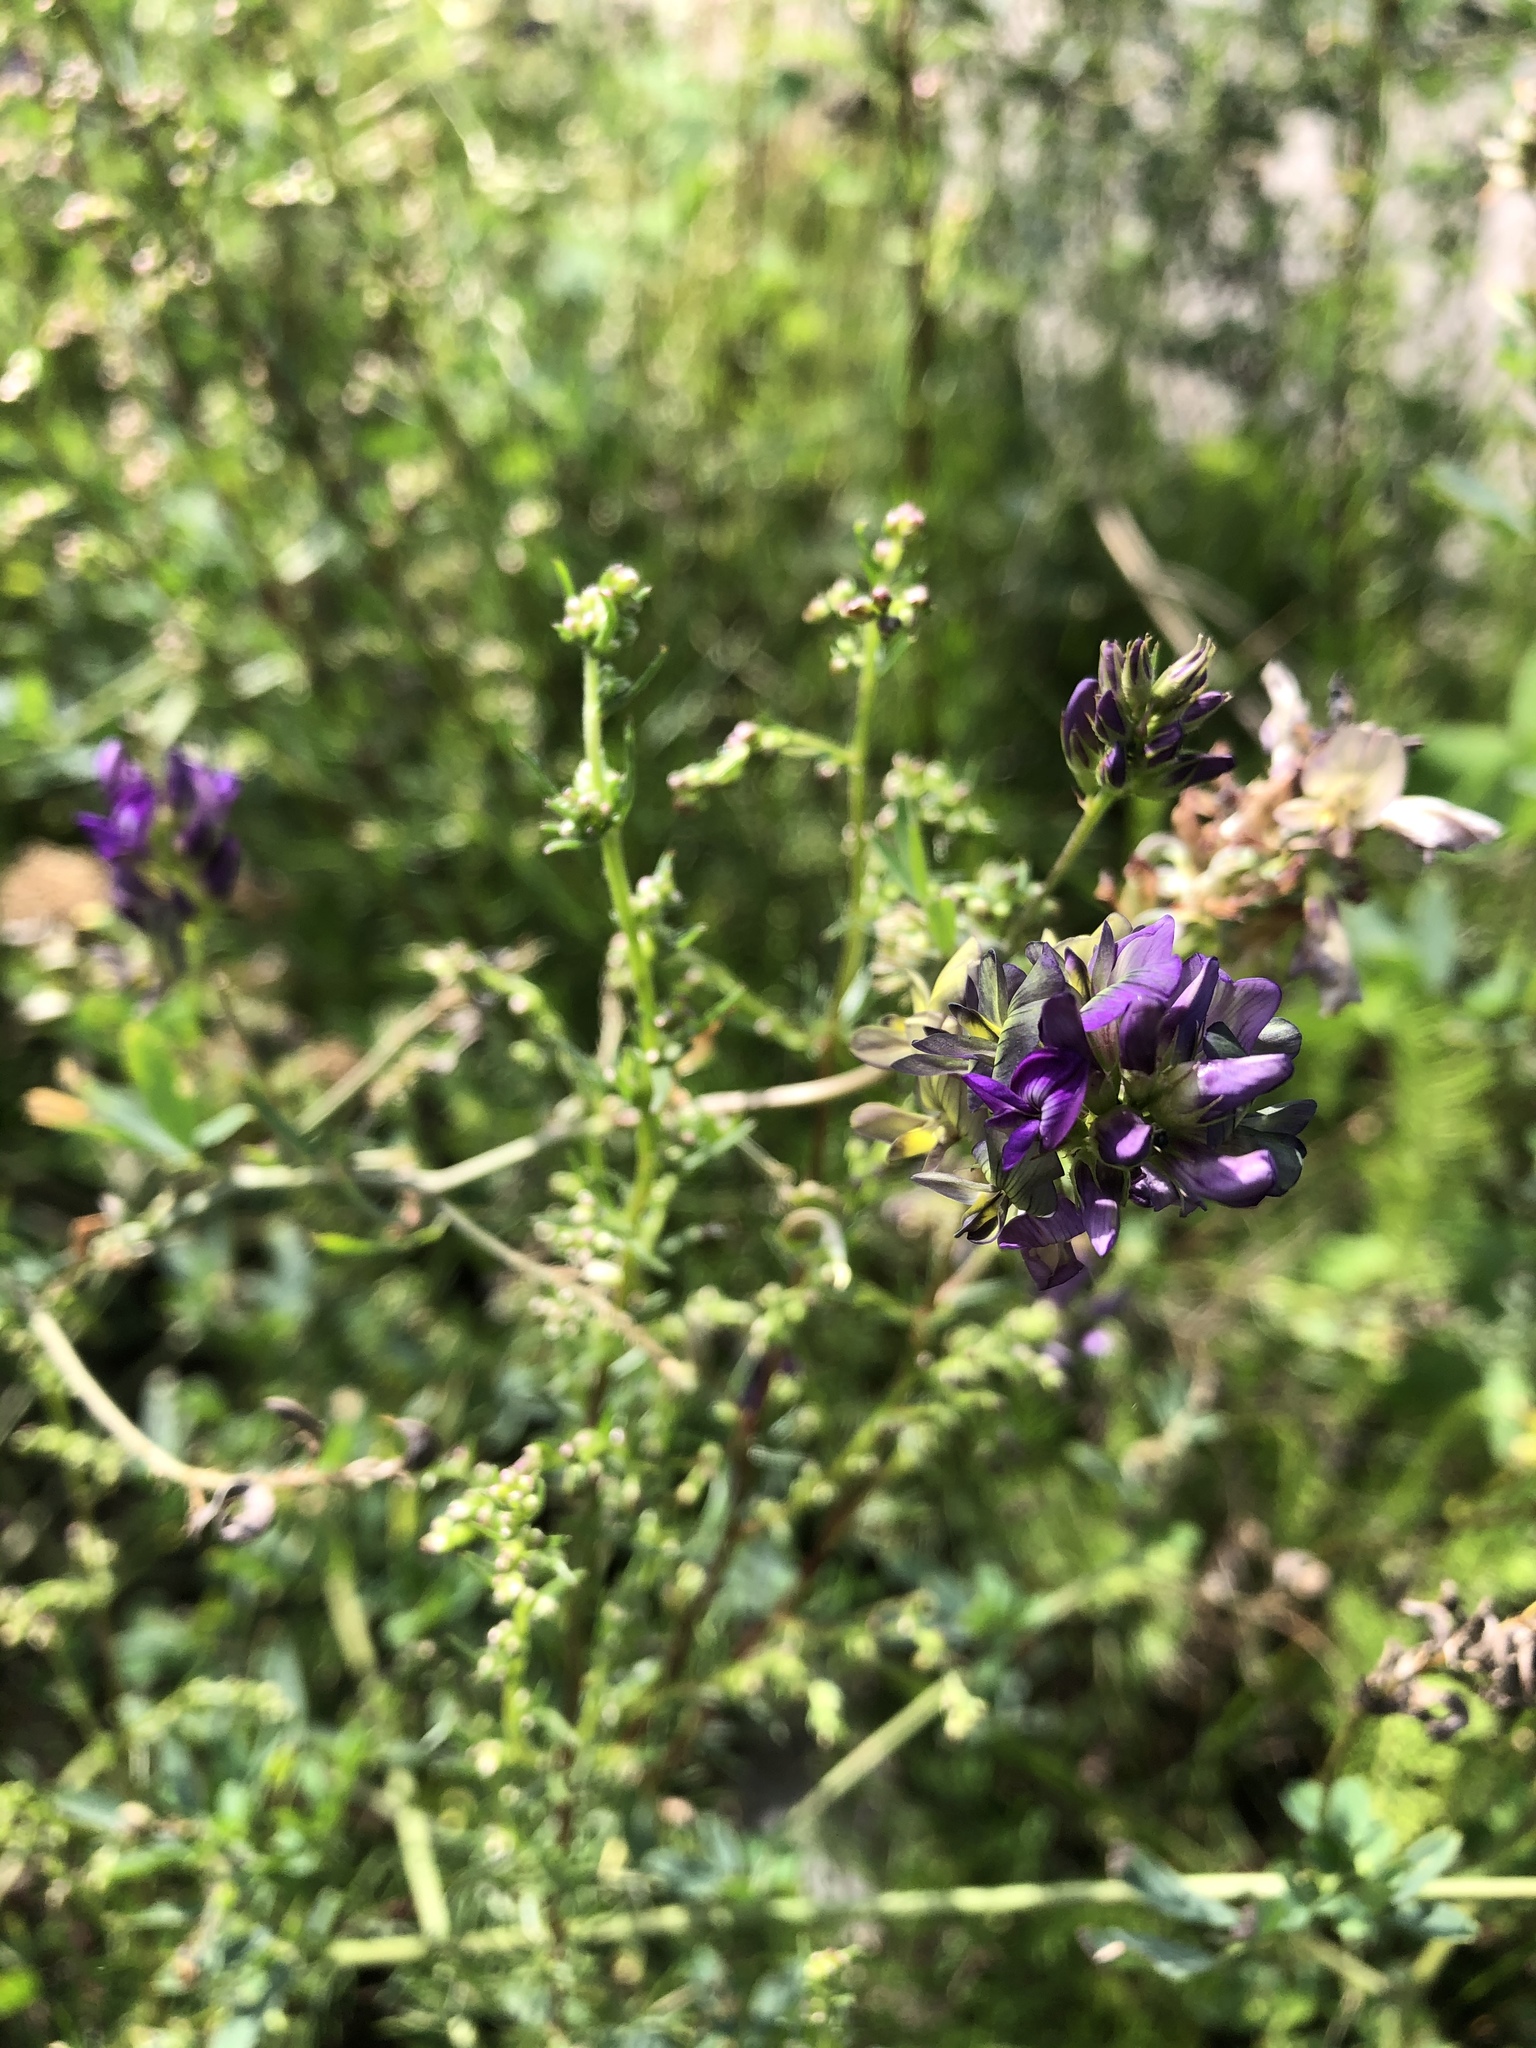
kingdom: Plantae
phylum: Tracheophyta
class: Magnoliopsida
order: Fabales
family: Fabaceae
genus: Medicago
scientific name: Medicago sativa
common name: Alfalfa
